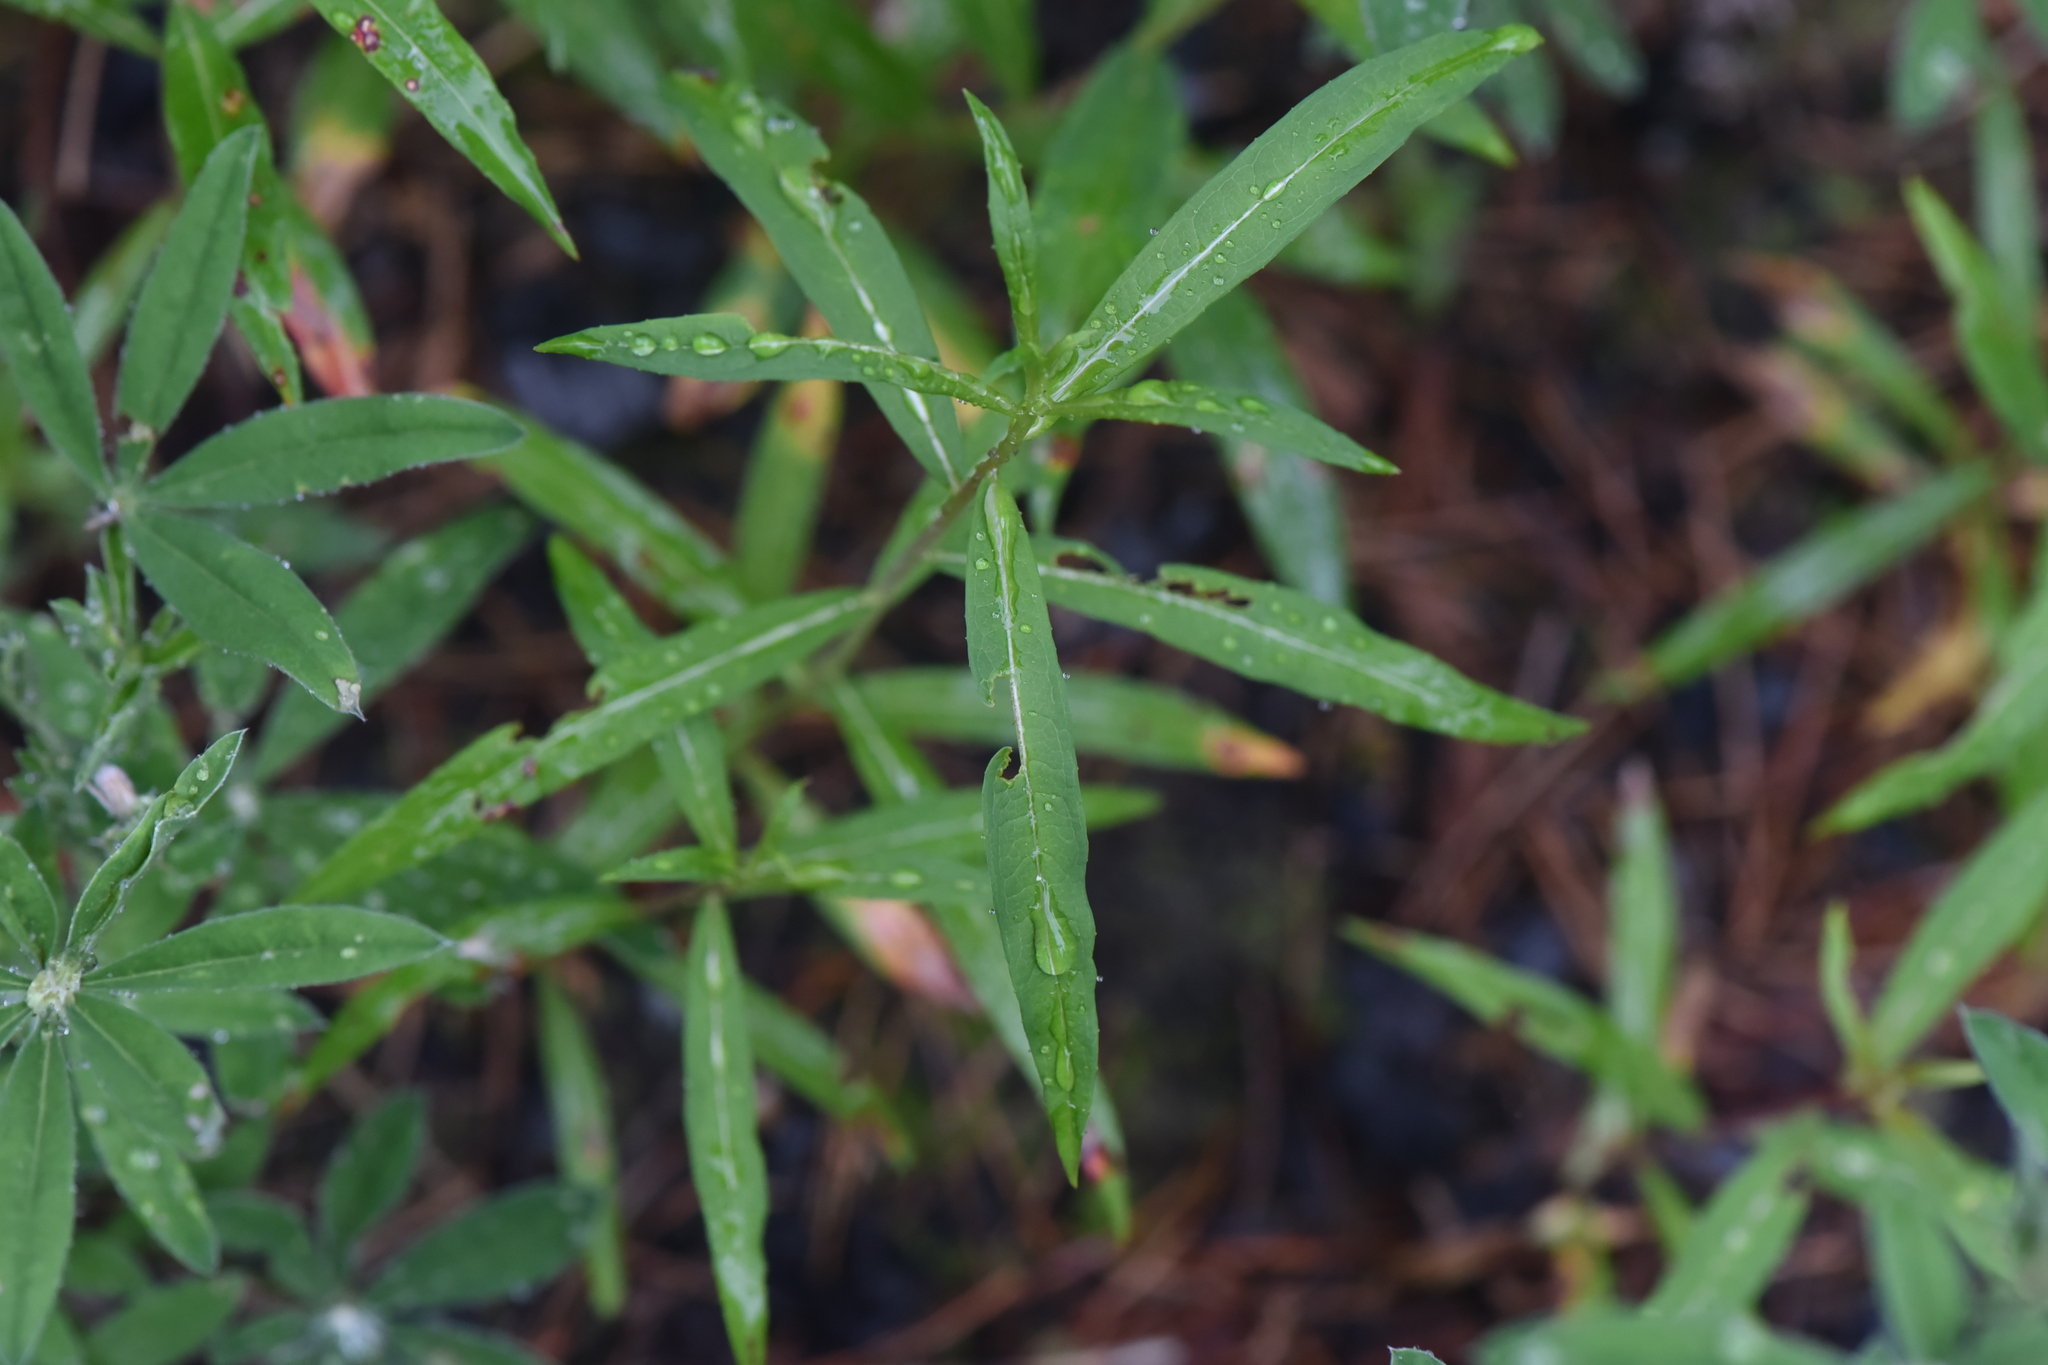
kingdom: Plantae
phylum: Tracheophyta
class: Magnoliopsida
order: Myrtales
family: Onagraceae
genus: Chamaenerion
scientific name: Chamaenerion angustifolium
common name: Fireweed
